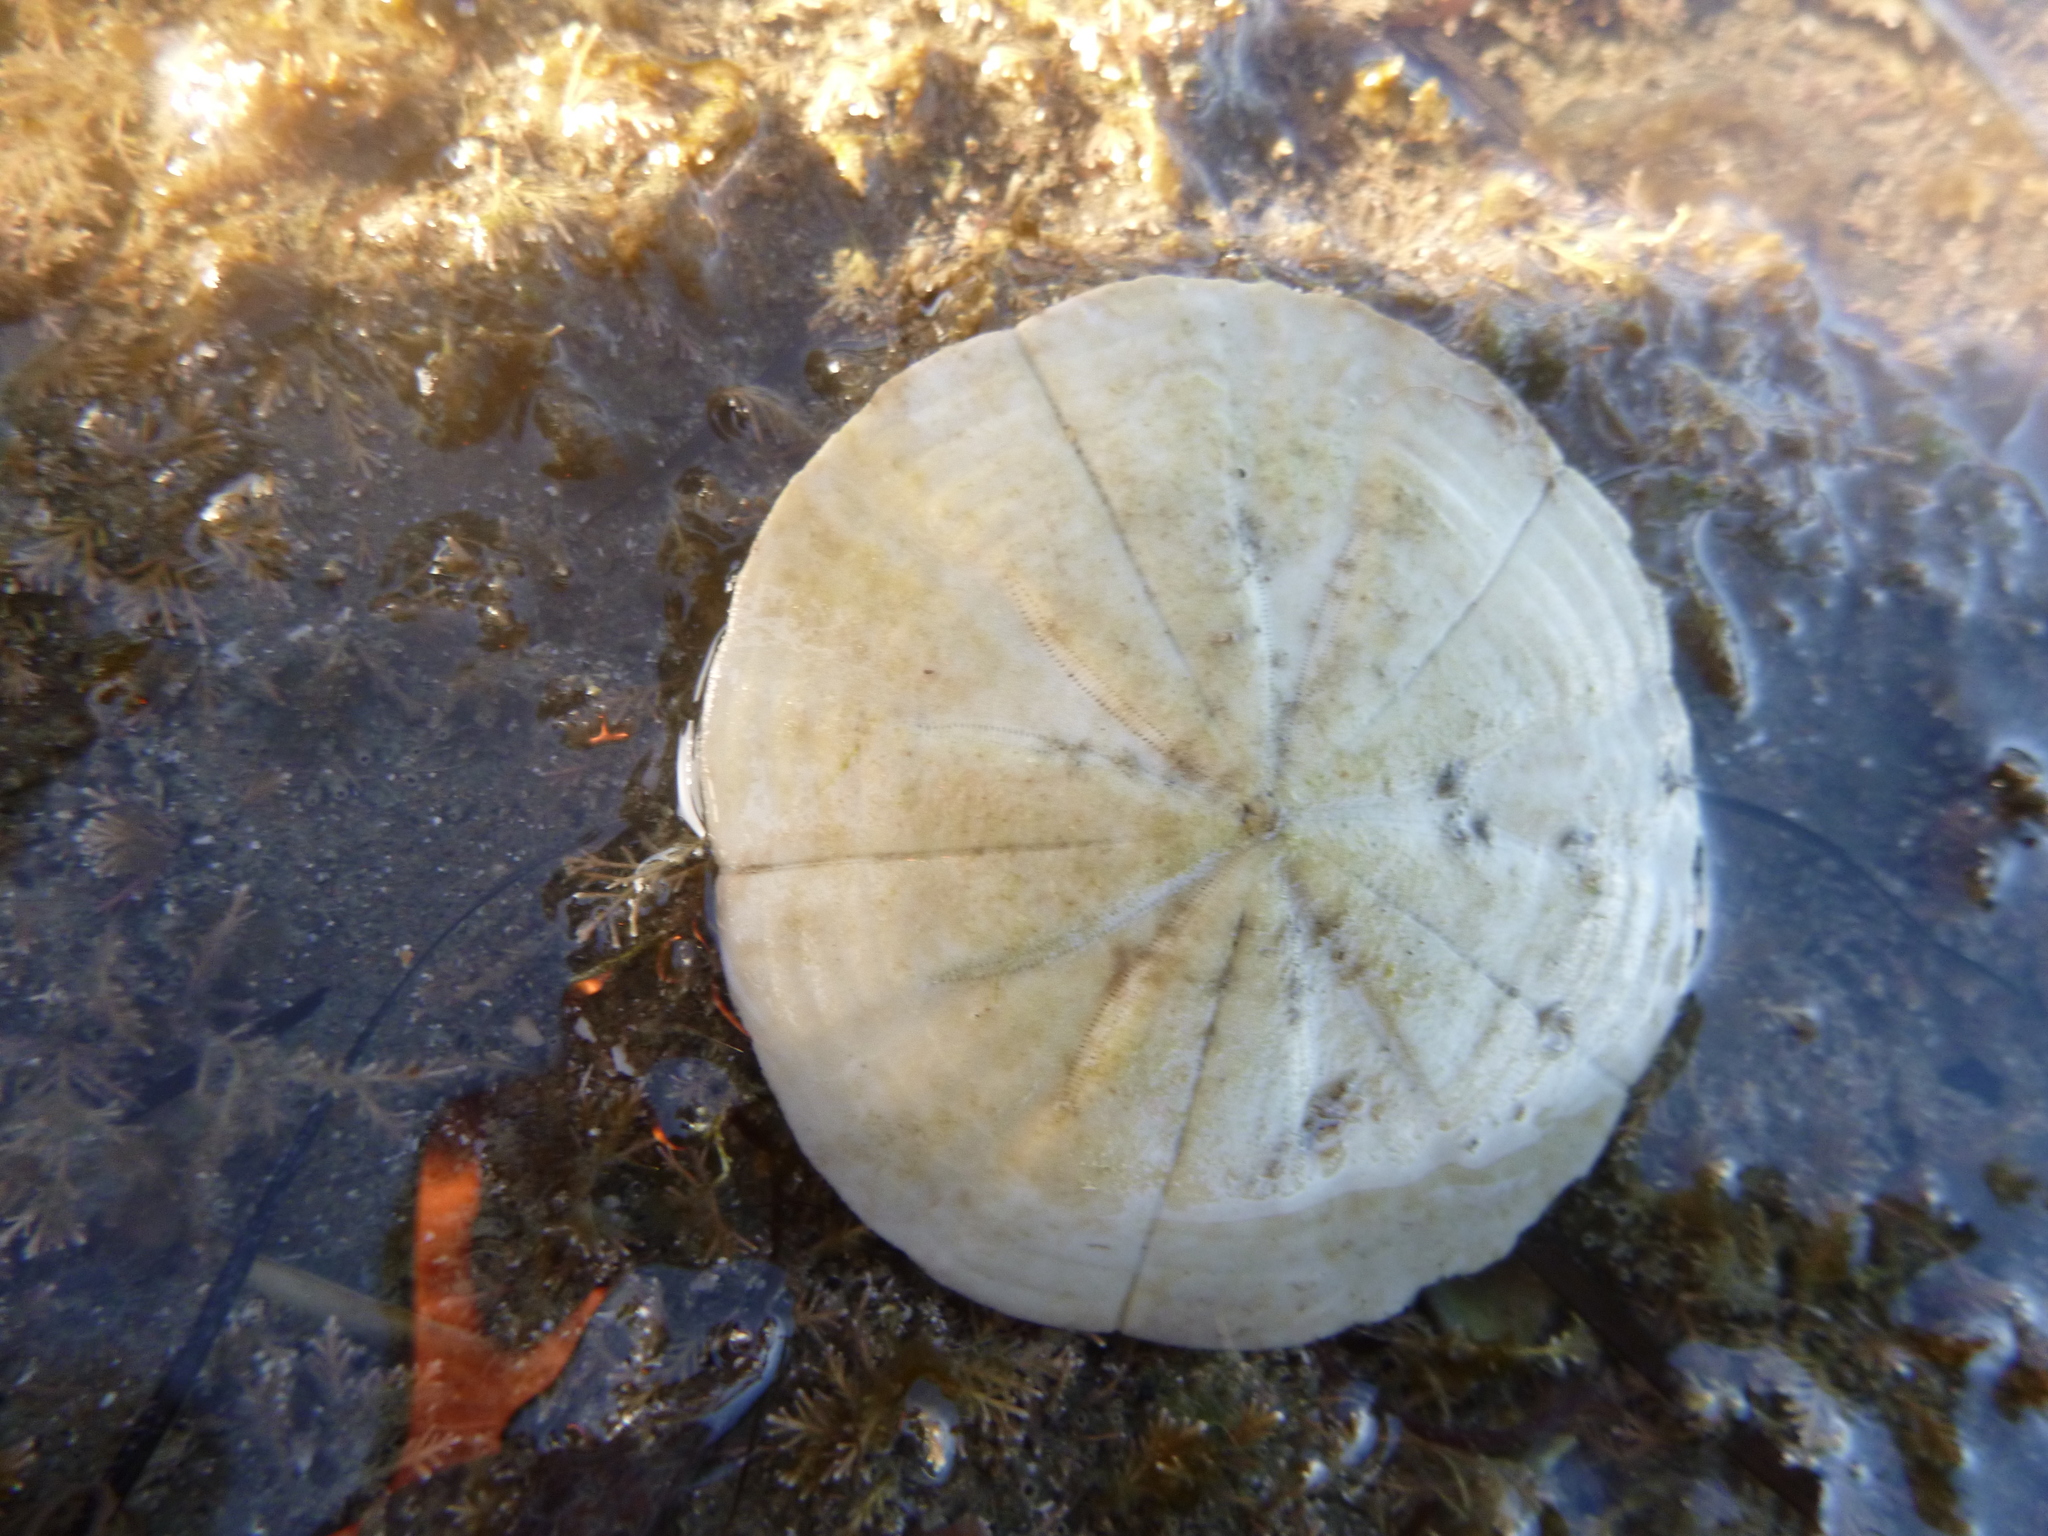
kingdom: Animalia
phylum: Echinodermata
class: Echinoidea
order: Clypeasteroida
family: Clypeasteridae
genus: Fellaster
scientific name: Fellaster zelandiae
